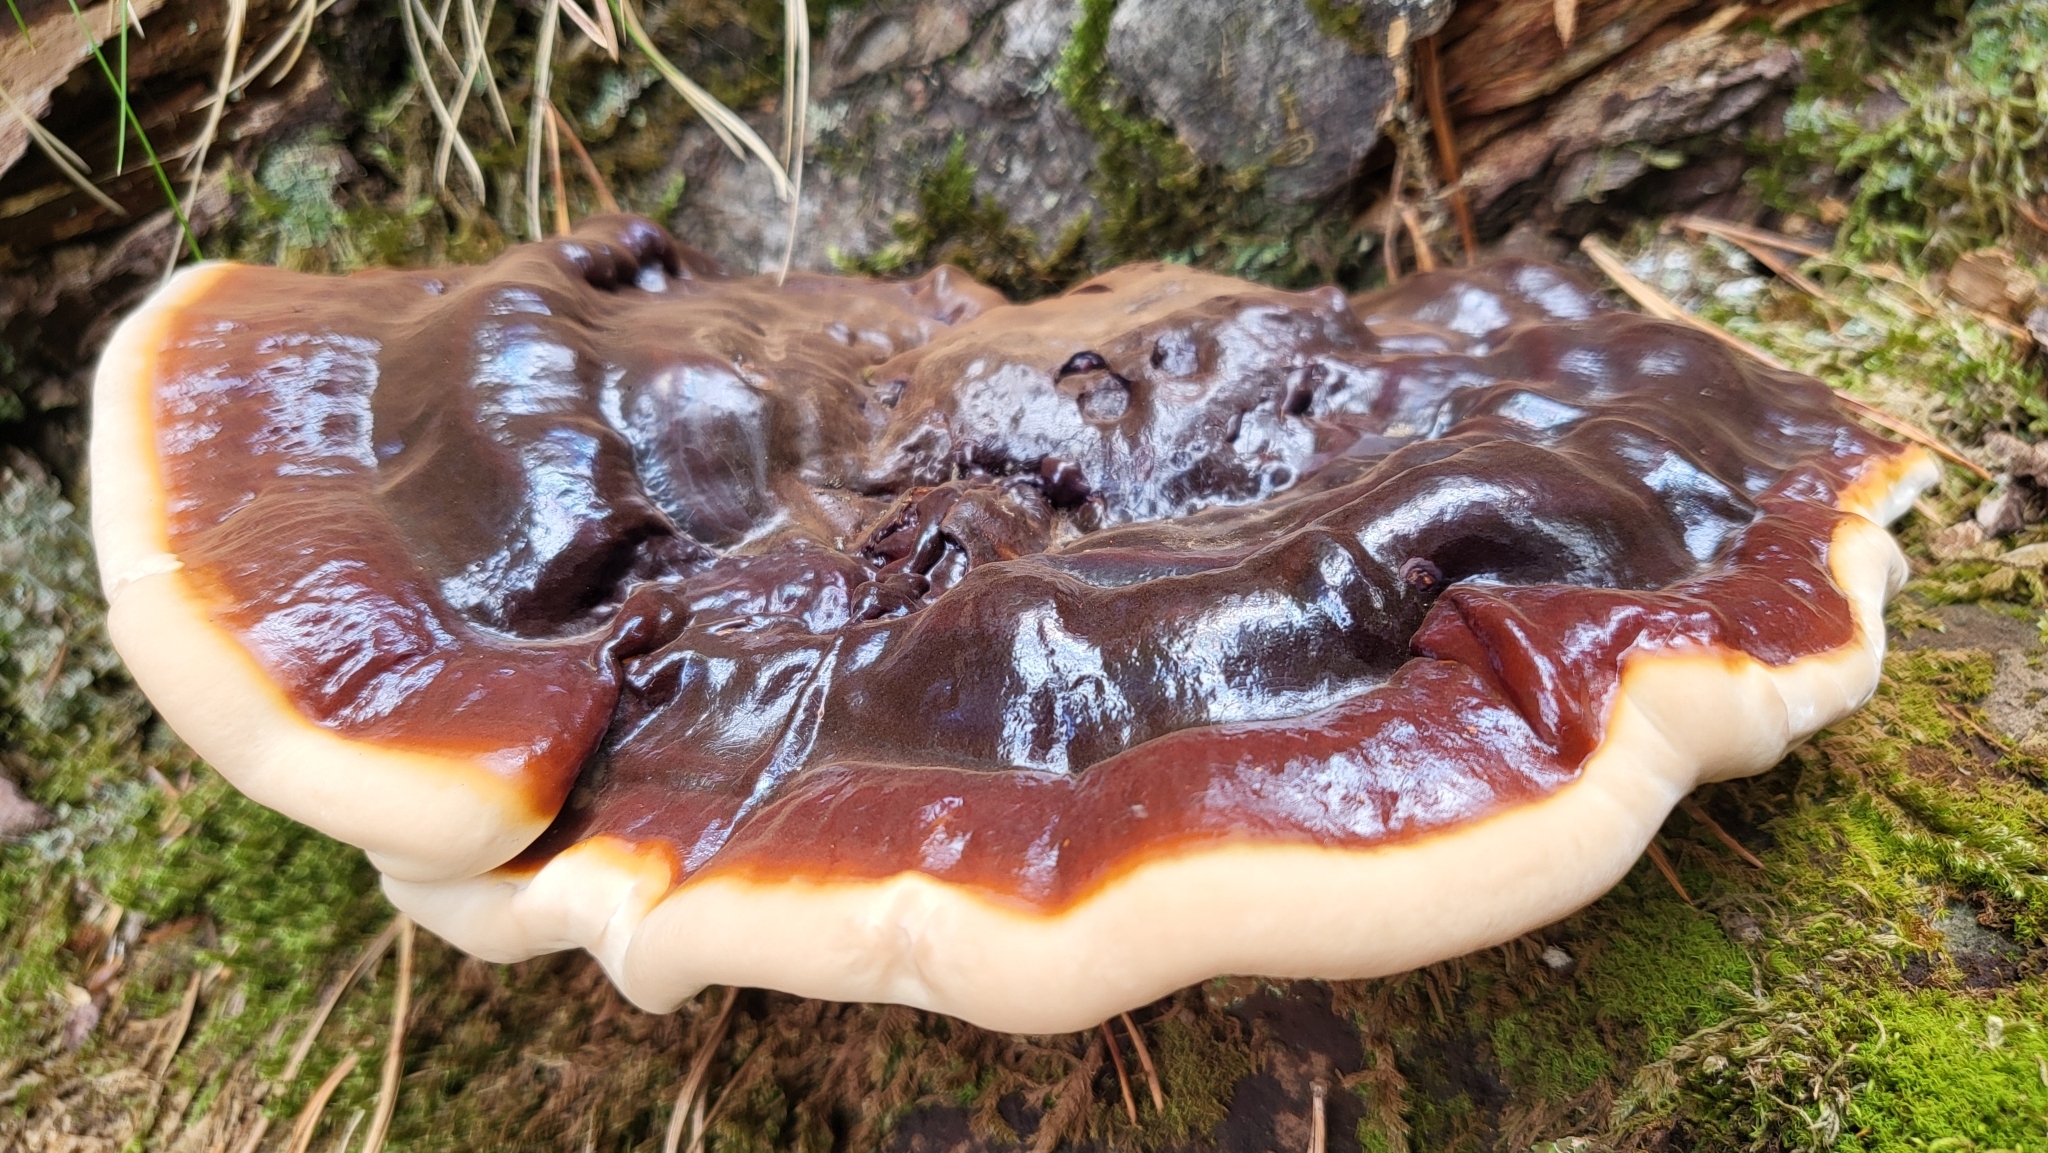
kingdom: Fungi
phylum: Basidiomycota
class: Agaricomycetes
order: Polyporales
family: Polyporaceae
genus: Ganoderma
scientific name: Ganoderma carnosum
